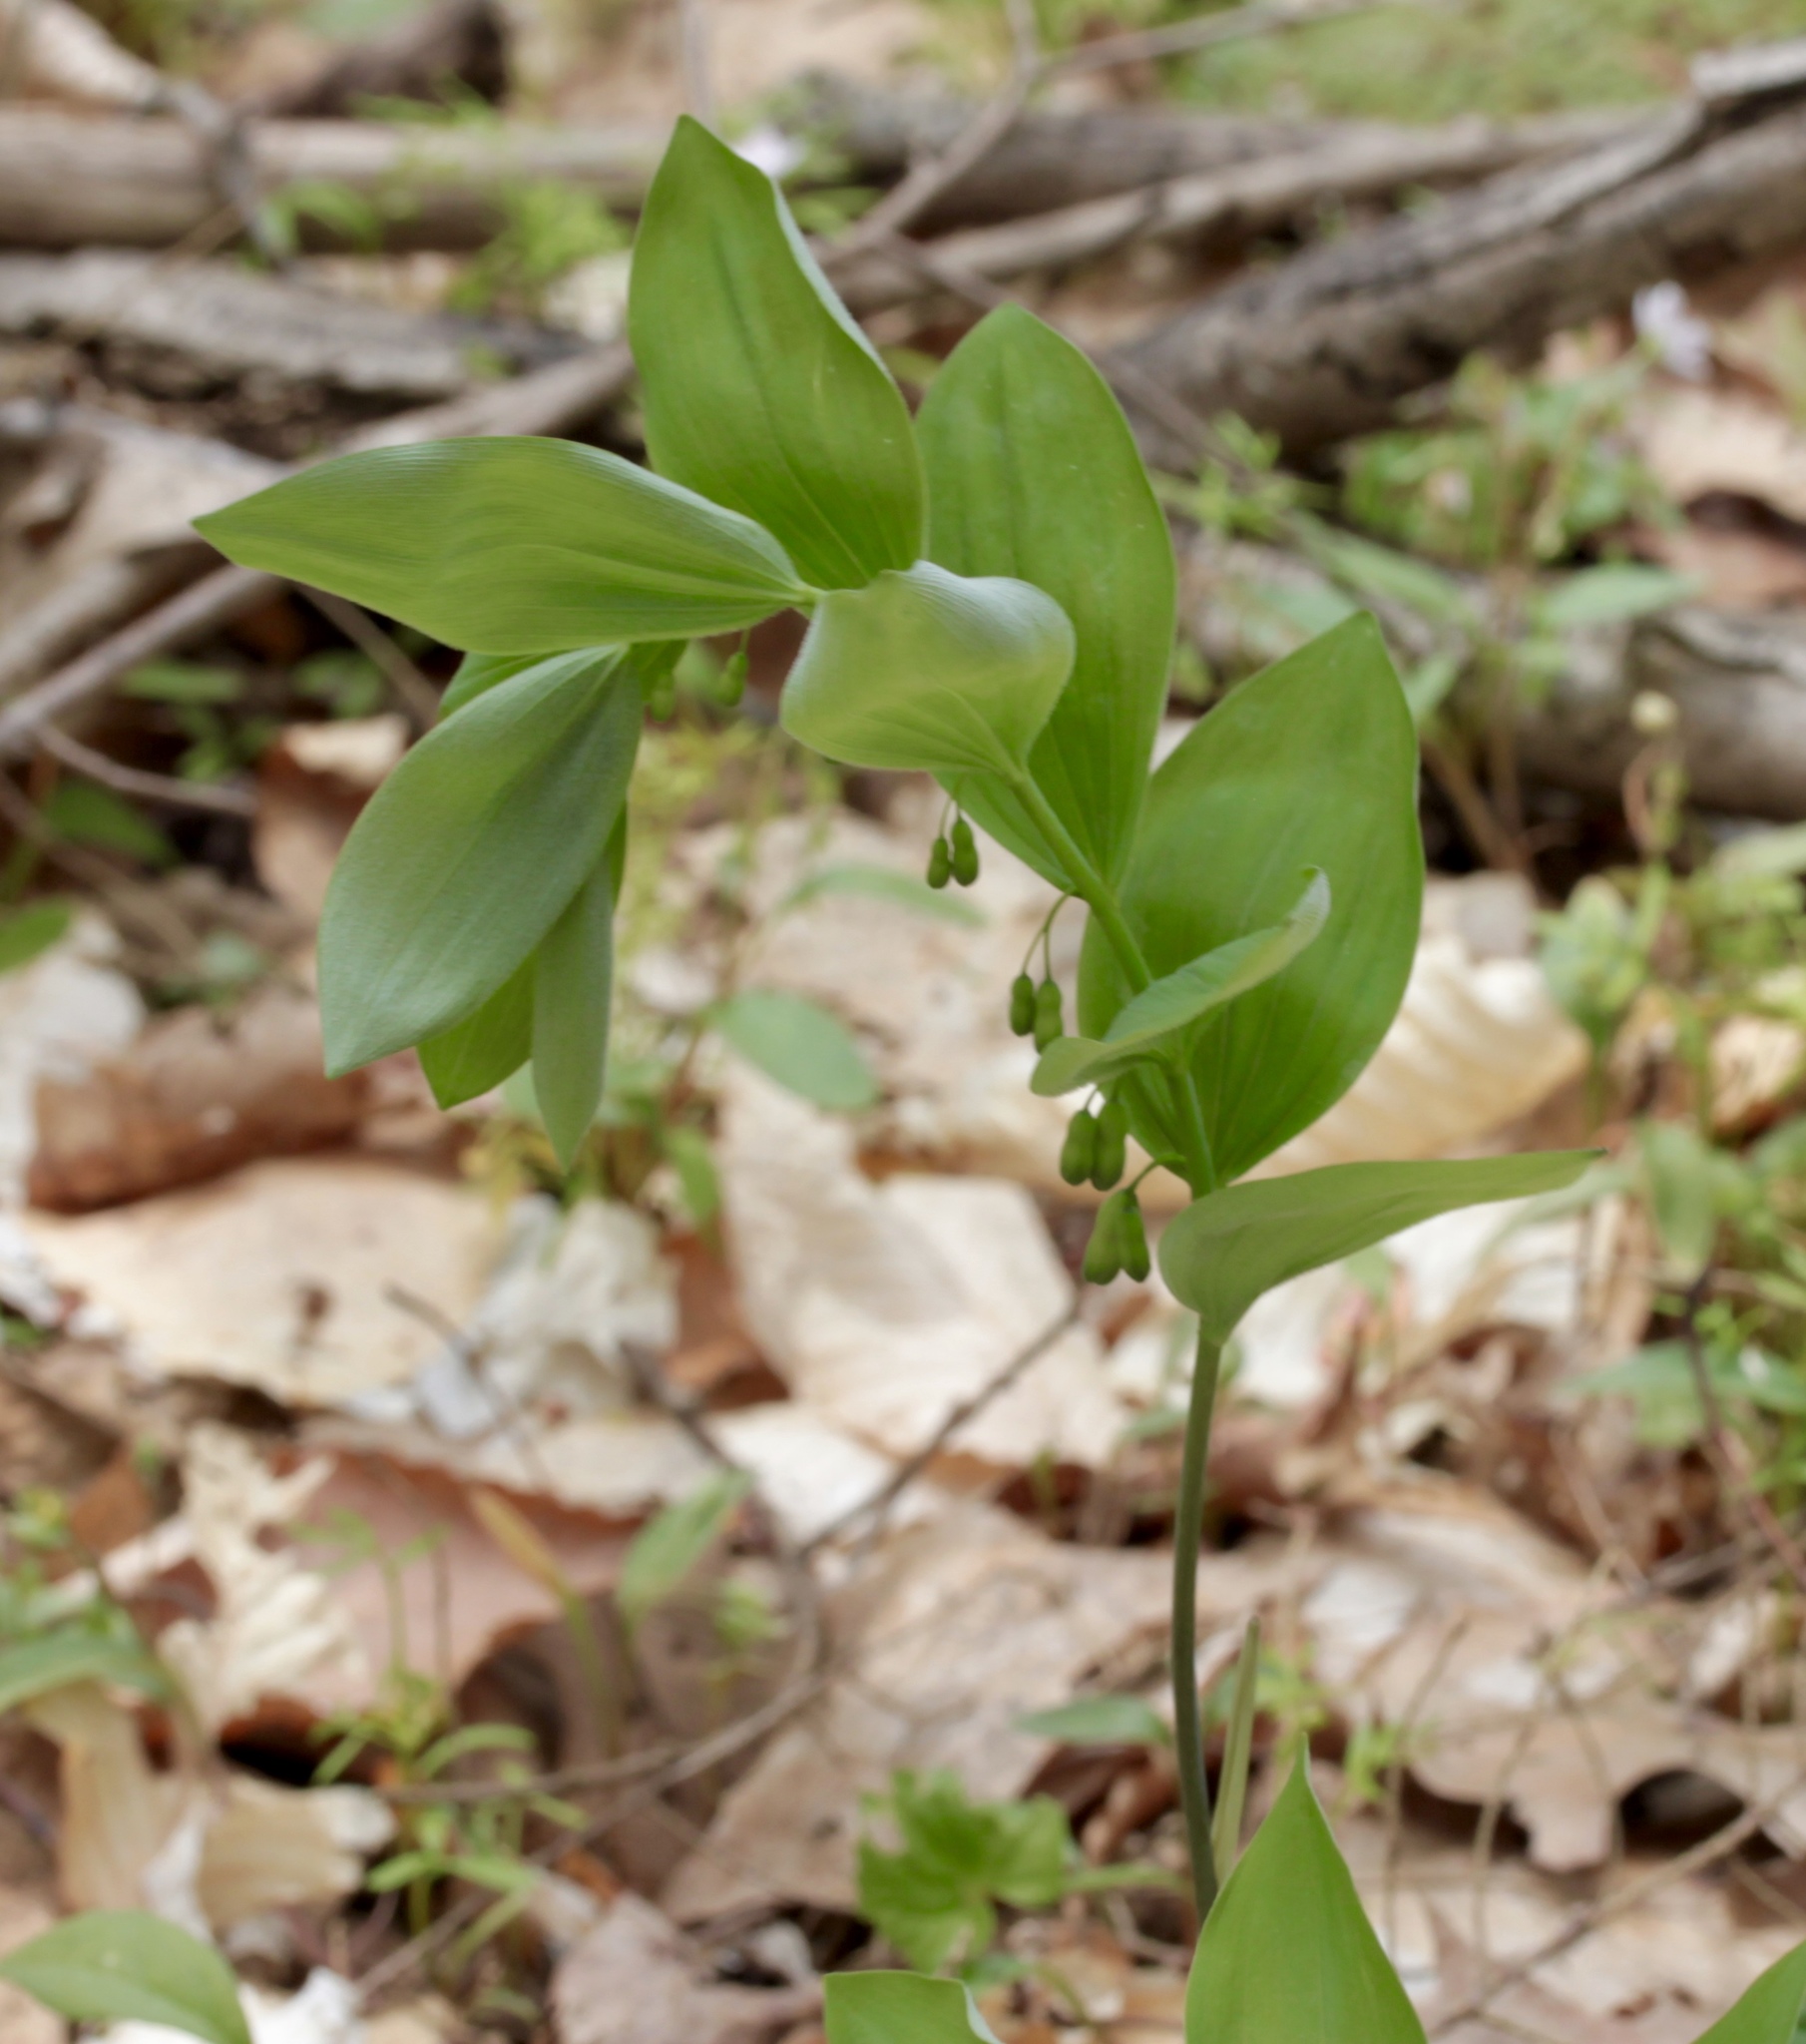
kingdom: Plantae
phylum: Tracheophyta
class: Liliopsida
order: Asparagales
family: Asparagaceae
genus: Polygonatum
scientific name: Polygonatum pubescens
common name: Downy solomon's seal
